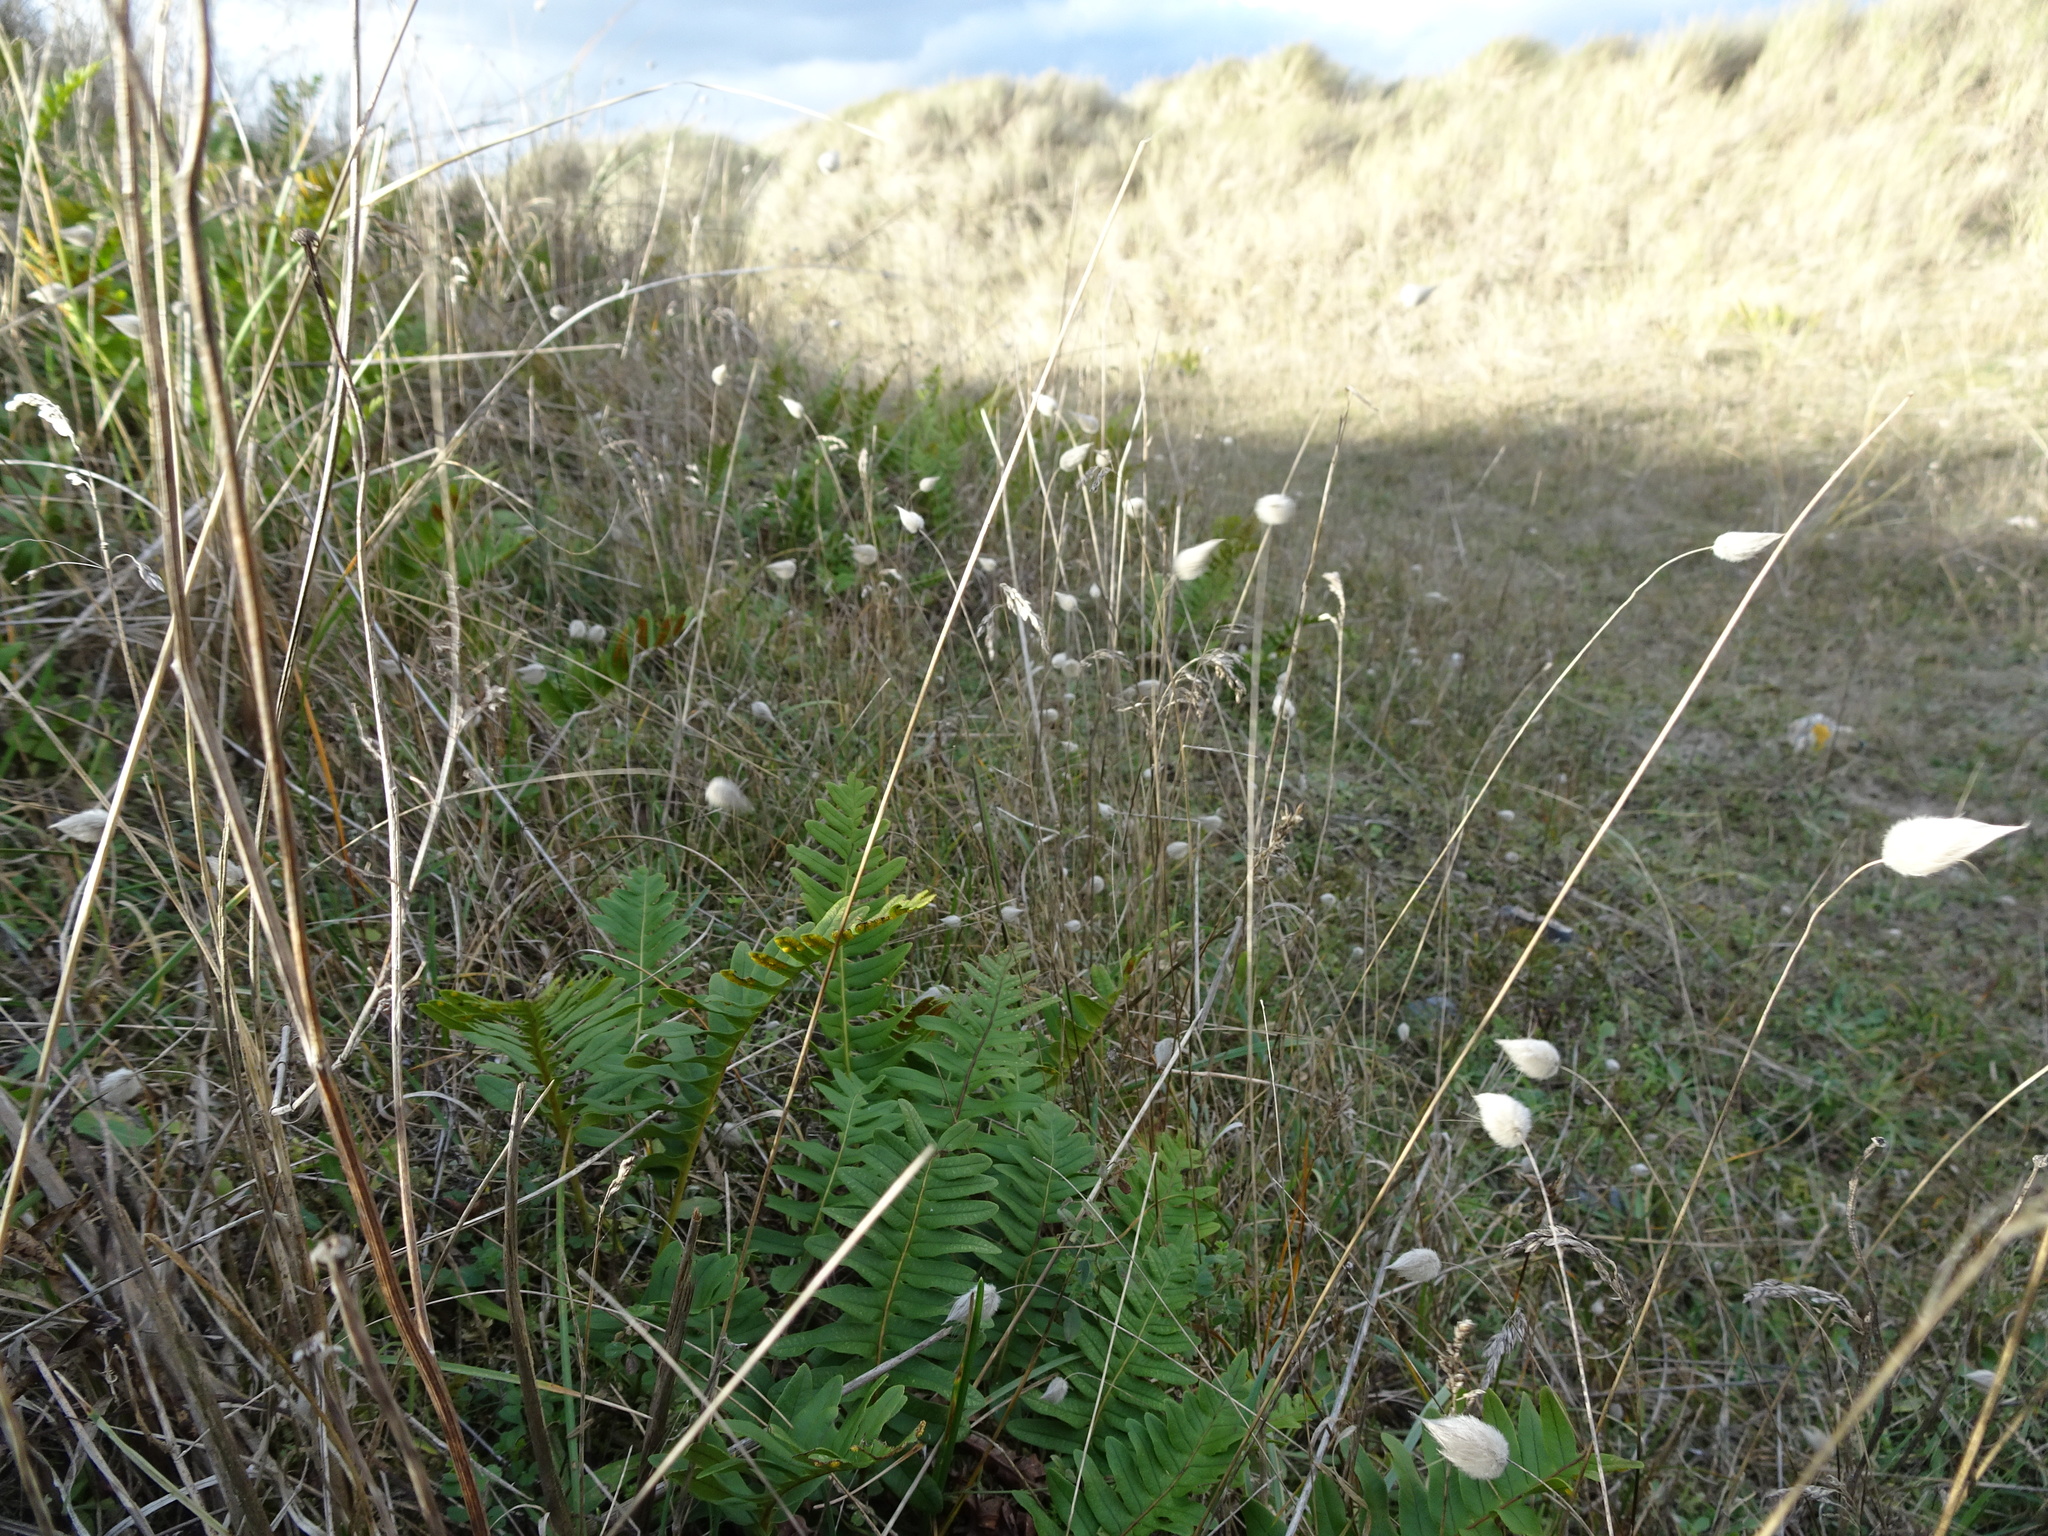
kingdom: Plantae
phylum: Tracheophyta
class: Liliopsida
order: Poales
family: Poaceae
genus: Lagurus
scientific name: Lagurus ovatus
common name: Hare's-tail
